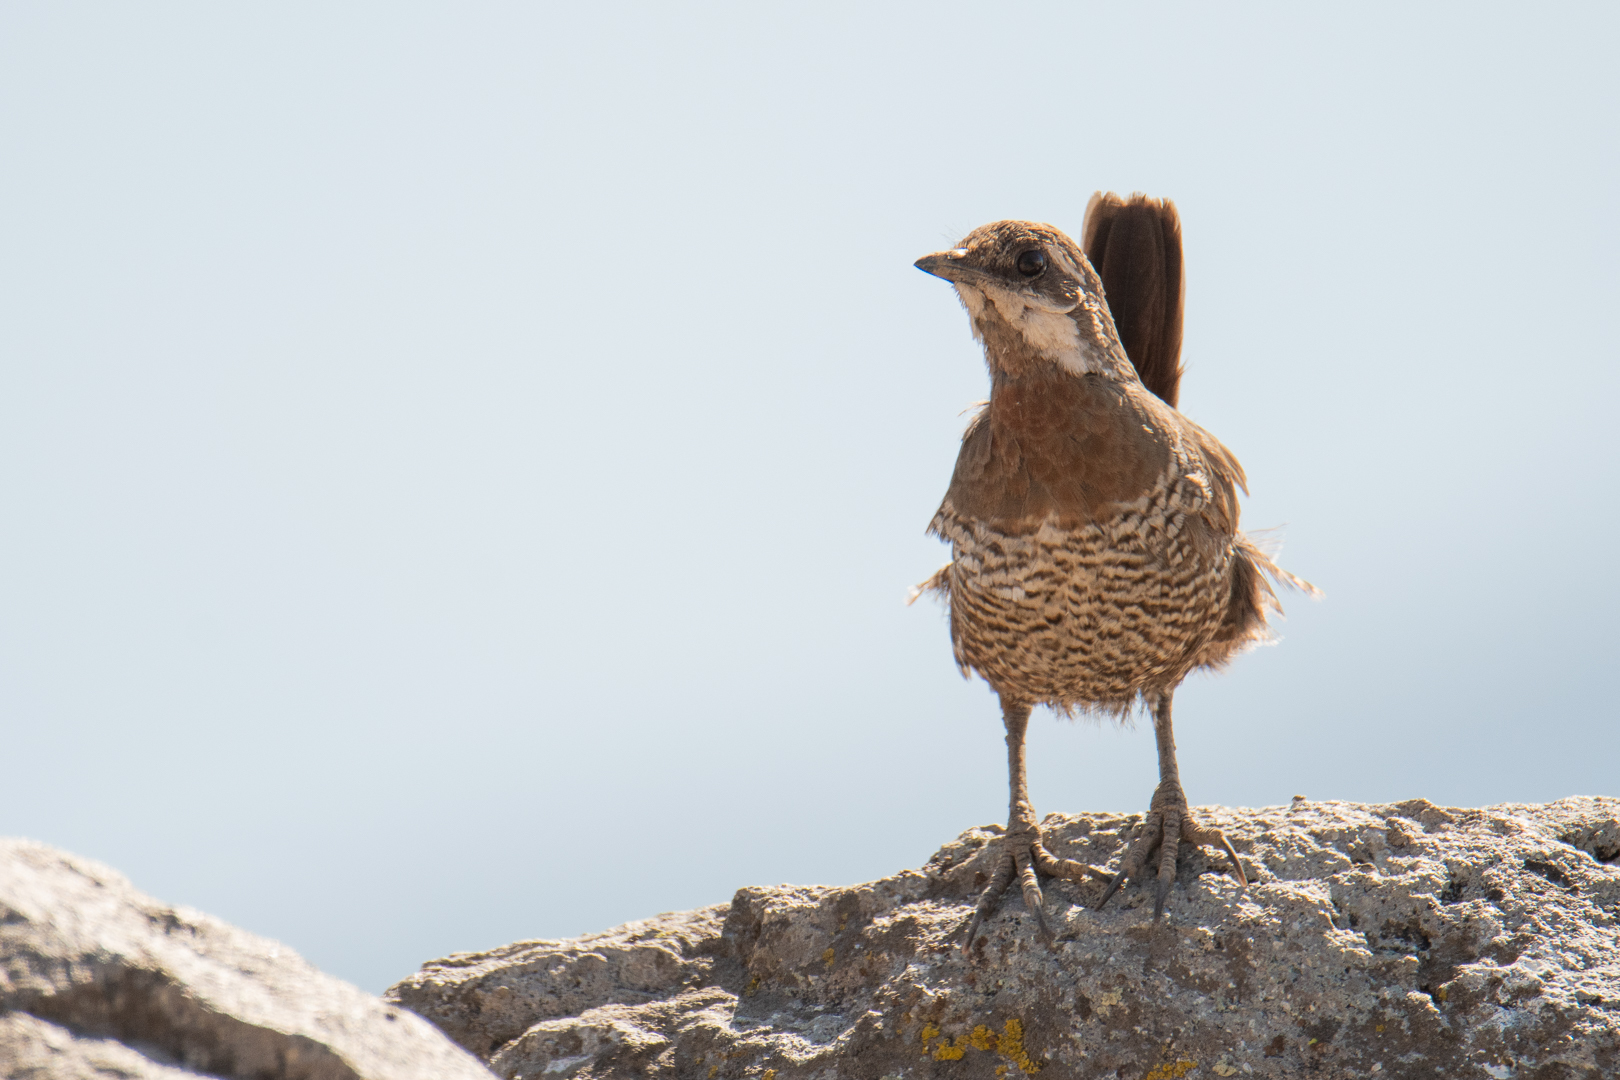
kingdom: Animalia
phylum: Chordata
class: Aves
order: Passeriformes
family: Rhinocryptidae
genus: Pteroptochos
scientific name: Pteroptochos megapodius
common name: Moustached turca
